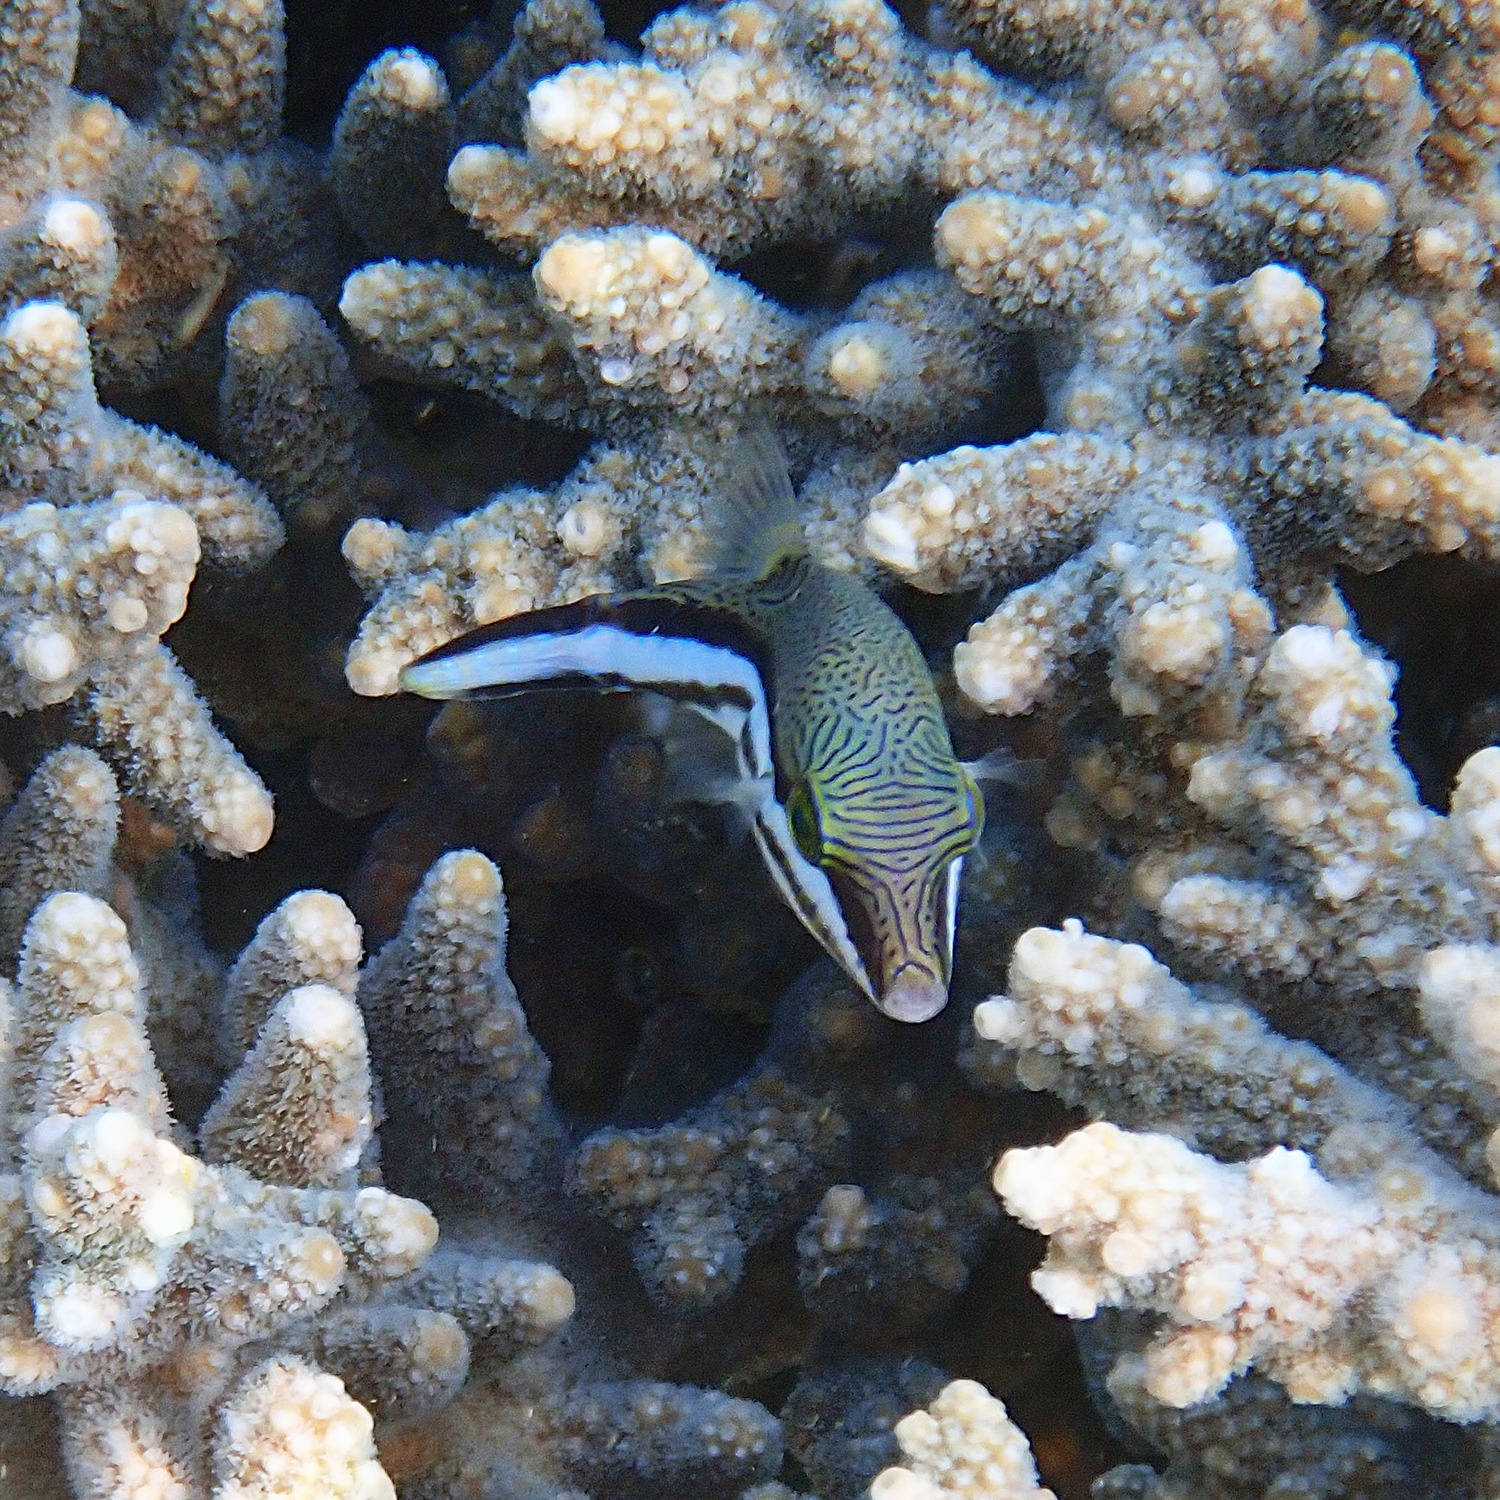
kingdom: Animalia
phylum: Chordata
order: Tetraodontiformes
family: Tetraodontidae
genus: Canthigaster
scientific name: Canthigaster callisterna
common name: Clown toado
